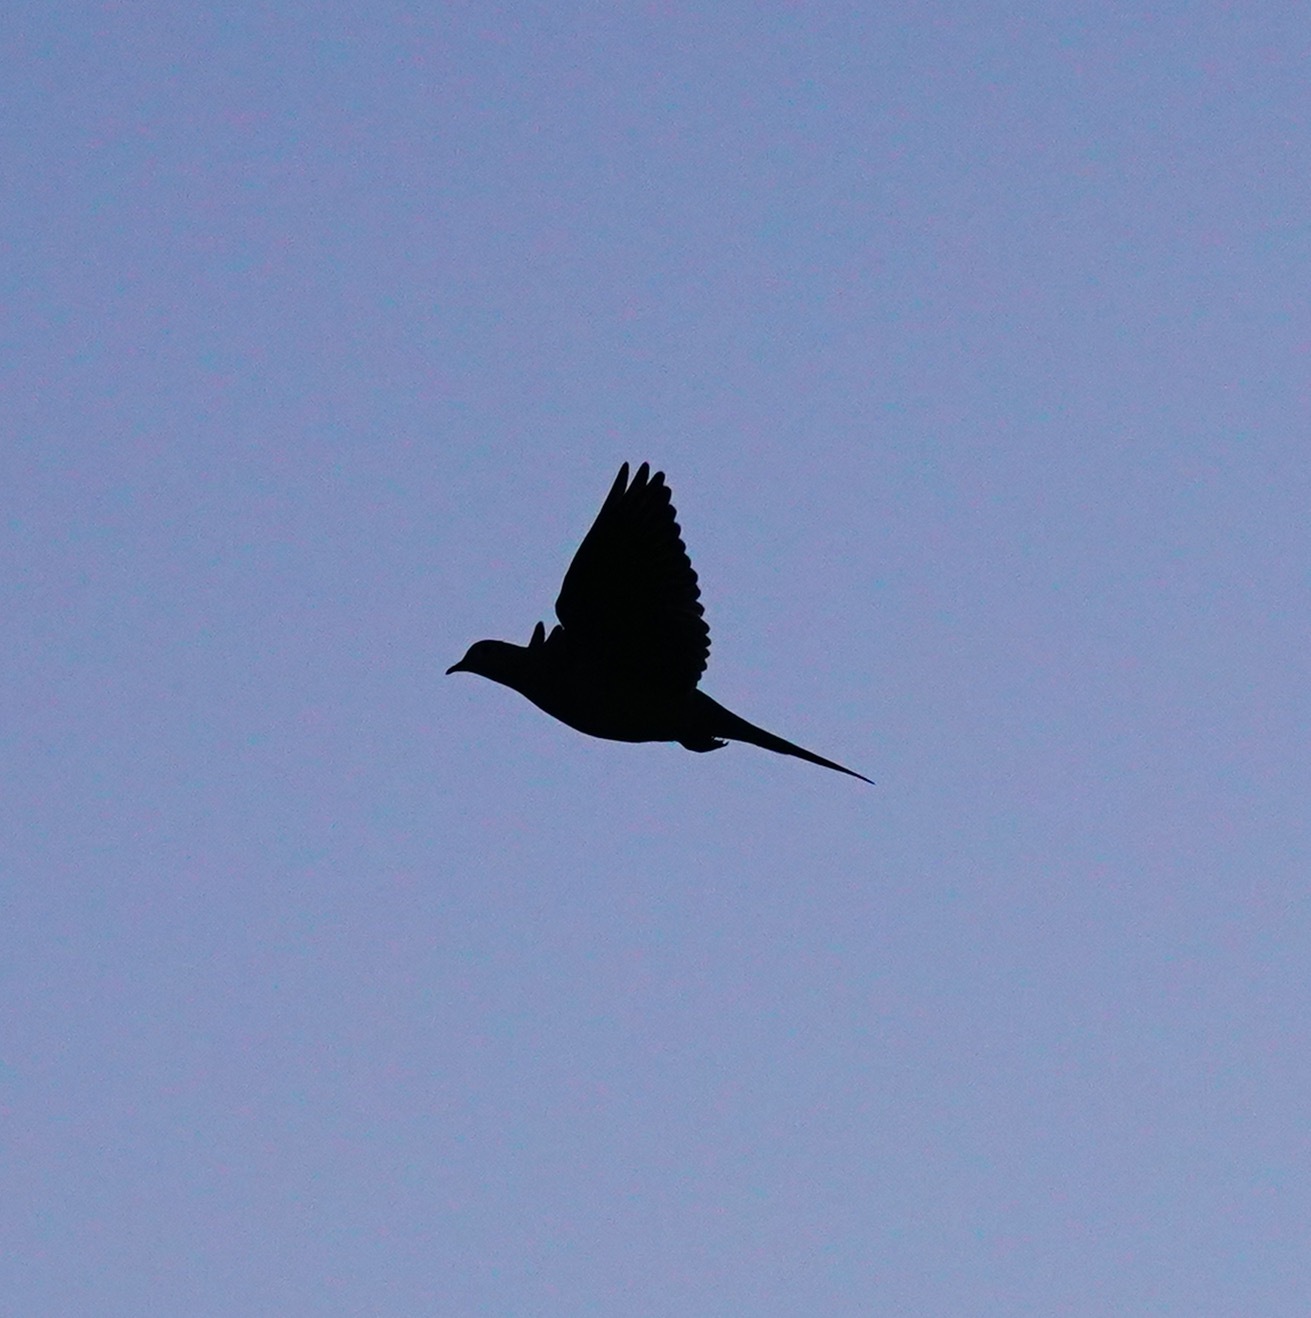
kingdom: Animalia
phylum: Chordata
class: Aves
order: Columbiformes
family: Columbidae
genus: Zenaida
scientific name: Zenaida macroura
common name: Mourning dove
